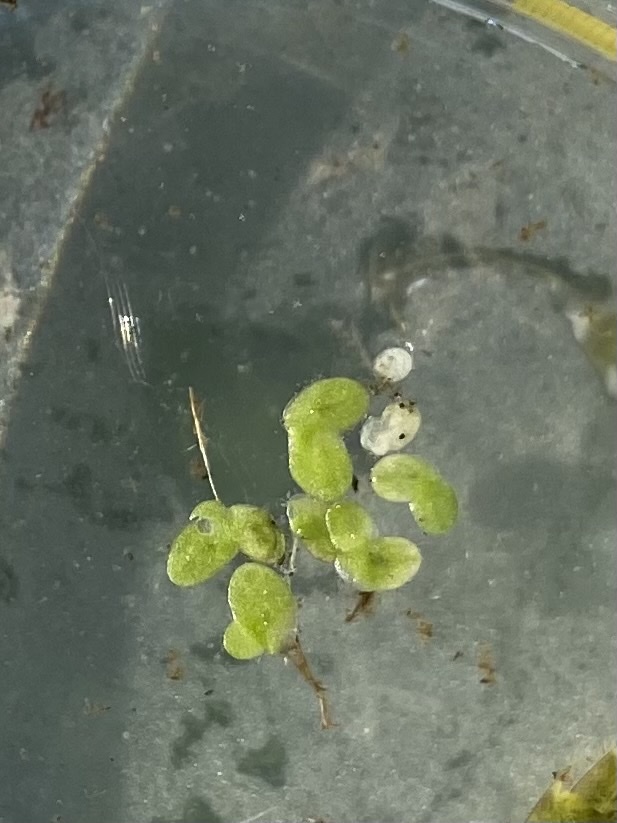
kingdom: Plantae
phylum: Tracheophyta
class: Liliopsida
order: Alismatales
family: Araceae
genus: Lemna
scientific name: Lemna minor
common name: Common duckweed
